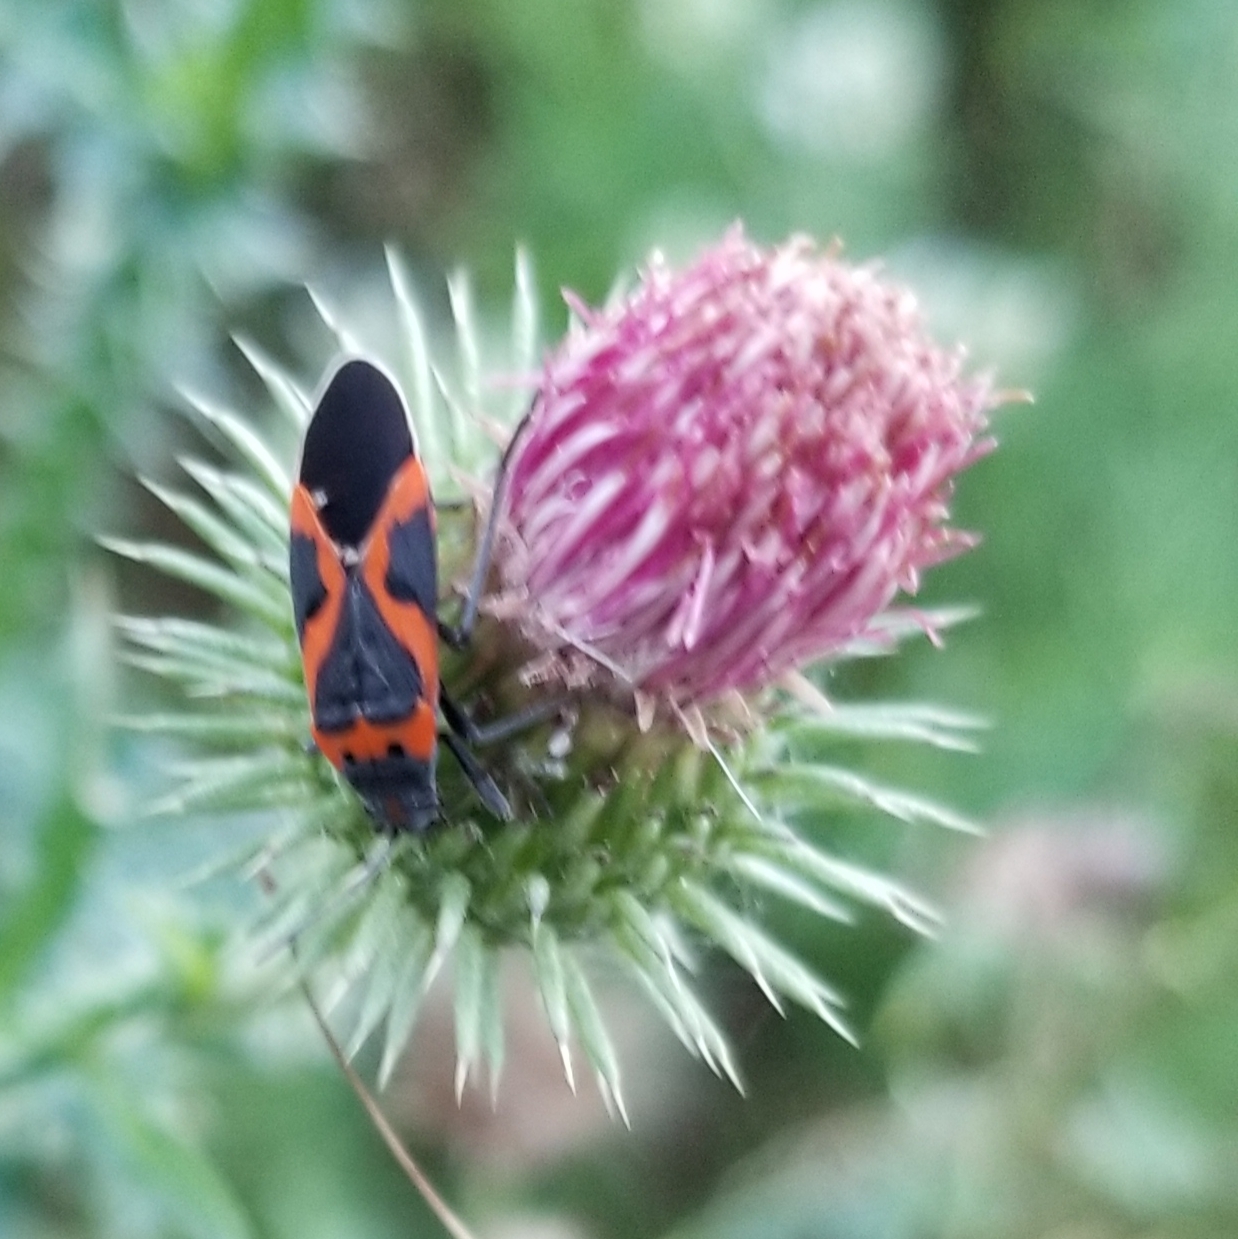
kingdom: Animalia
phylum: Arthropoda
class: Insecta
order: Hemiptera
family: Lygaeidae
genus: Lygaeus
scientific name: Lygaeus kalmii
